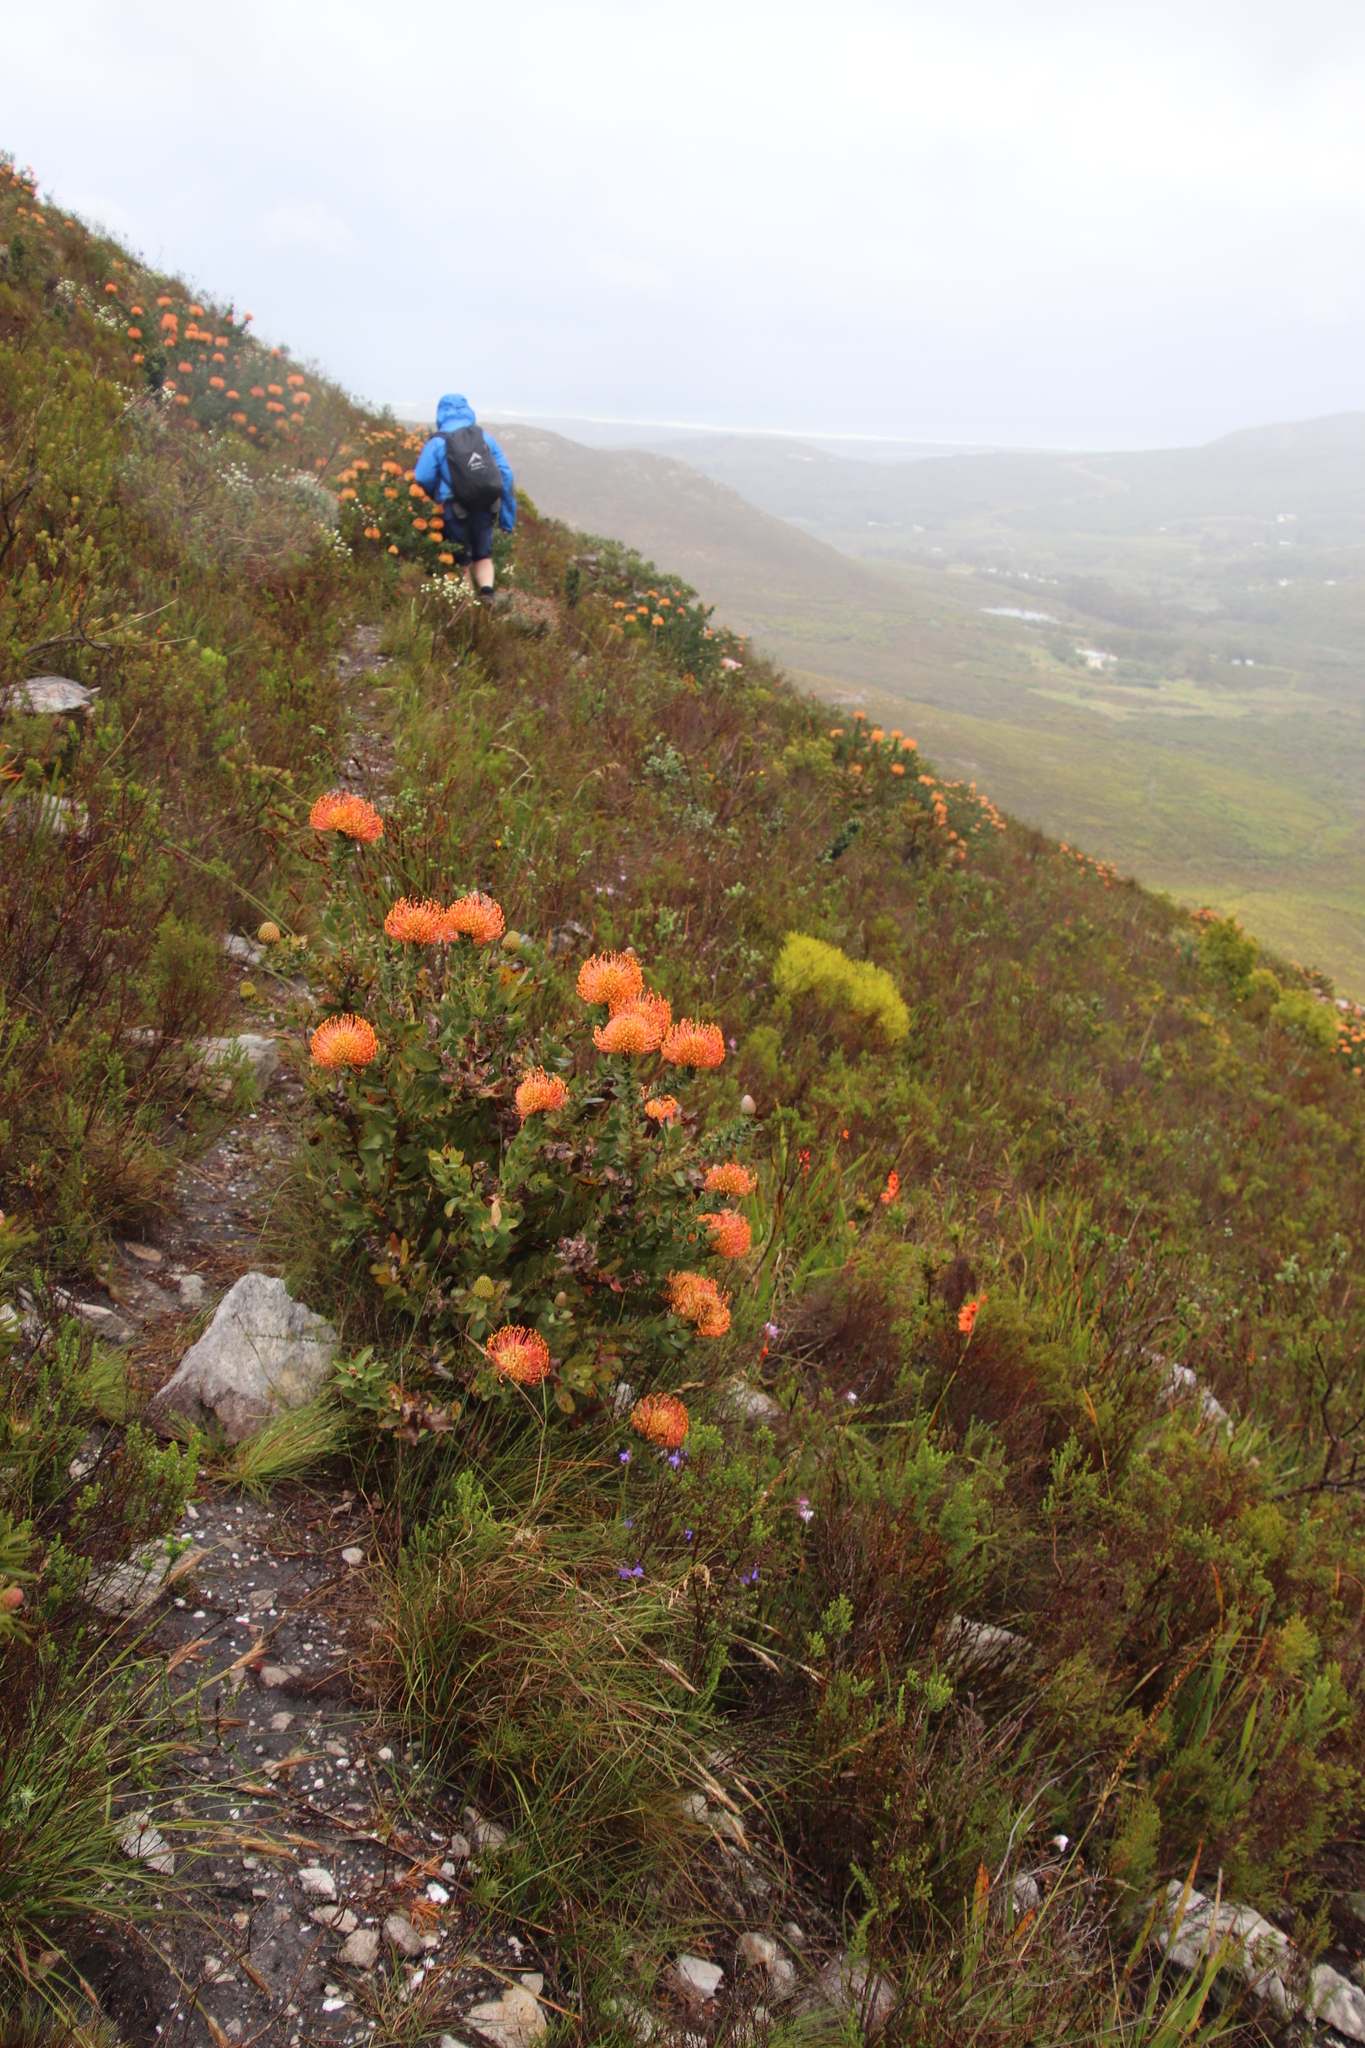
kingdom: Plantae
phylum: Tracheophyta
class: Magnoliopsida
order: Proteales
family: Proteaceae
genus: Leucospermum
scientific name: Leucospermum cordifolium
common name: Red pincushion-protea
